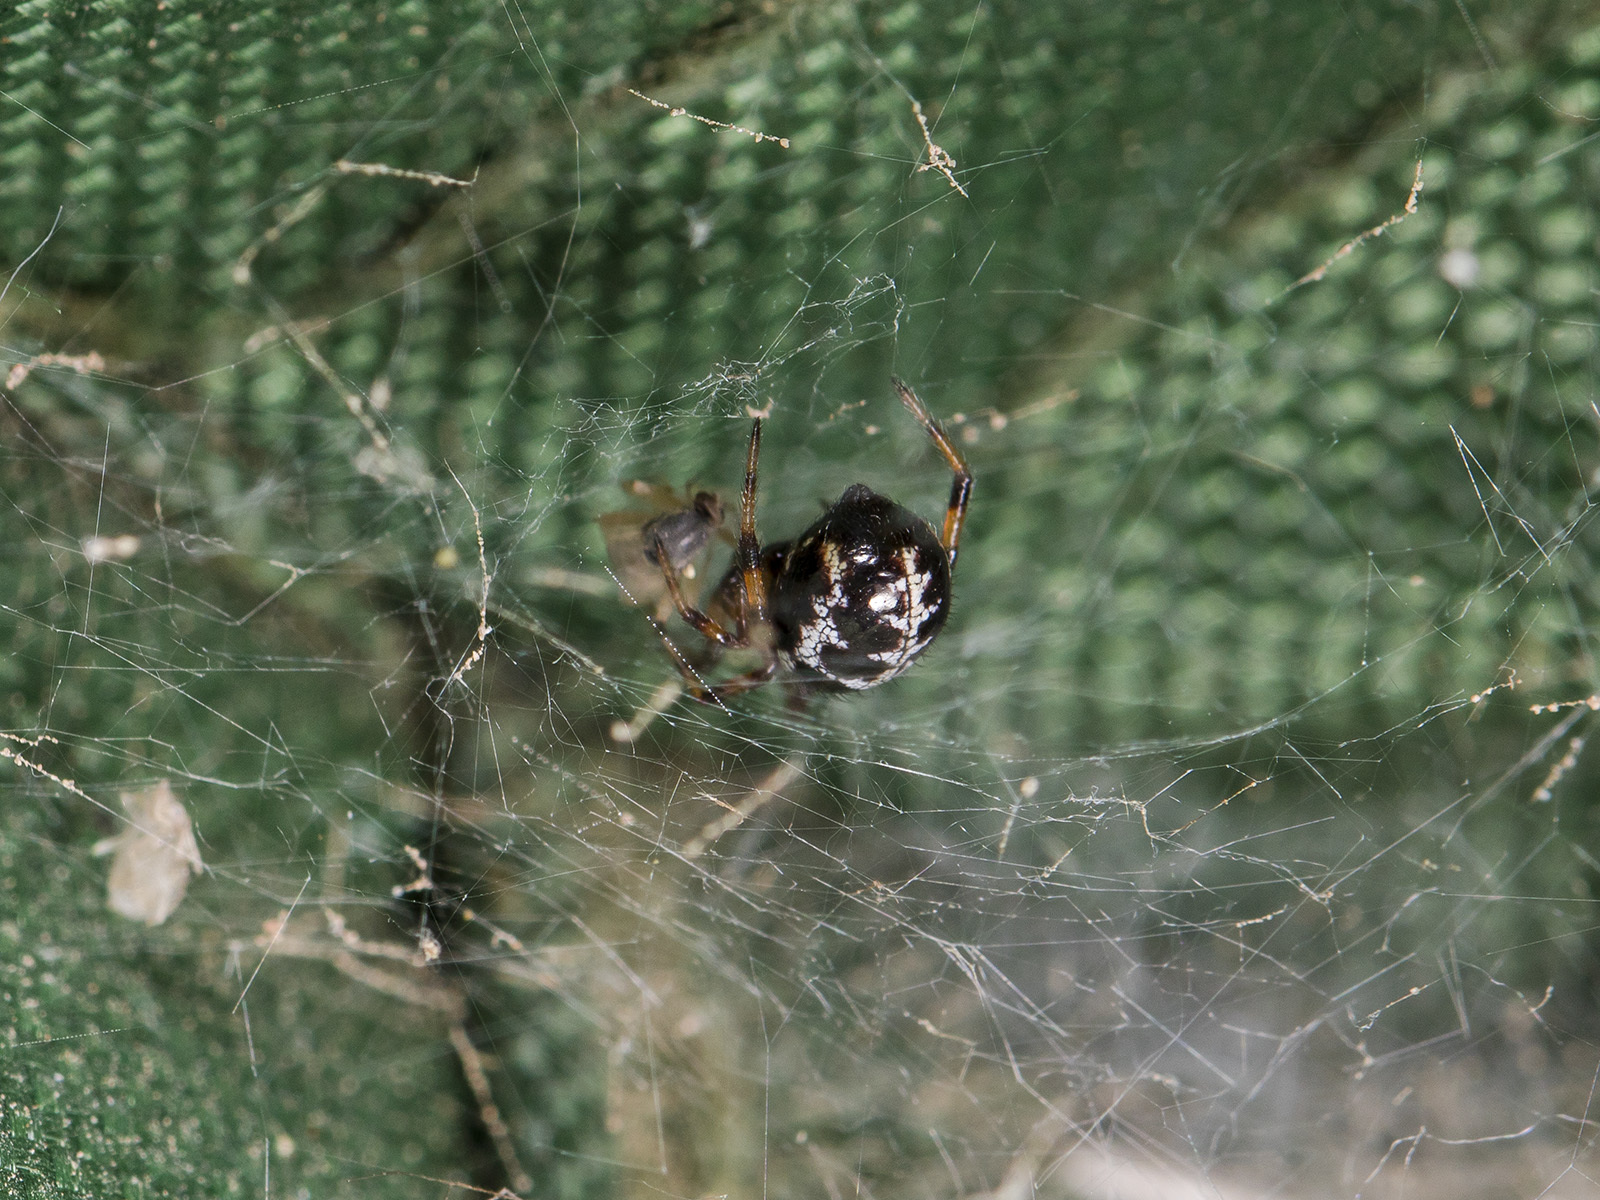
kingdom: Animalia
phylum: Arthropoda
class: Arachnida
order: Araneae
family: Theridiidae
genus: Steatoda
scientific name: Steatoda paykulliana
